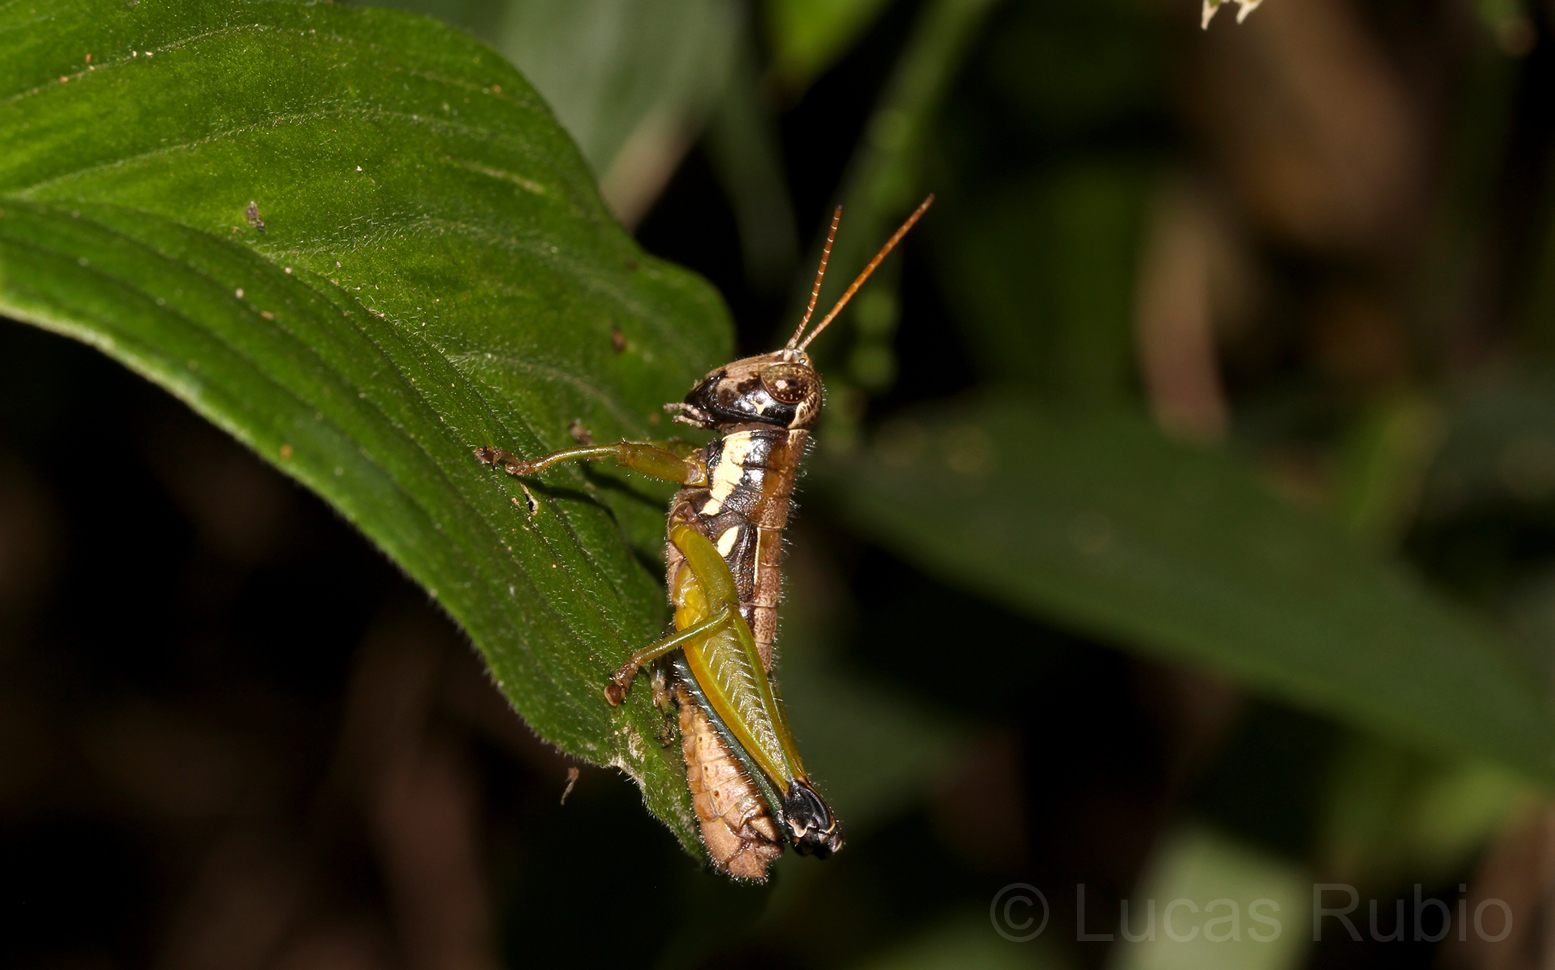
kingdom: Animalia
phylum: Arthropoda
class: Insecta
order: Orthoptera
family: Acrididae
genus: Pseudoscopas
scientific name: Pseudoscopas nigrigena
